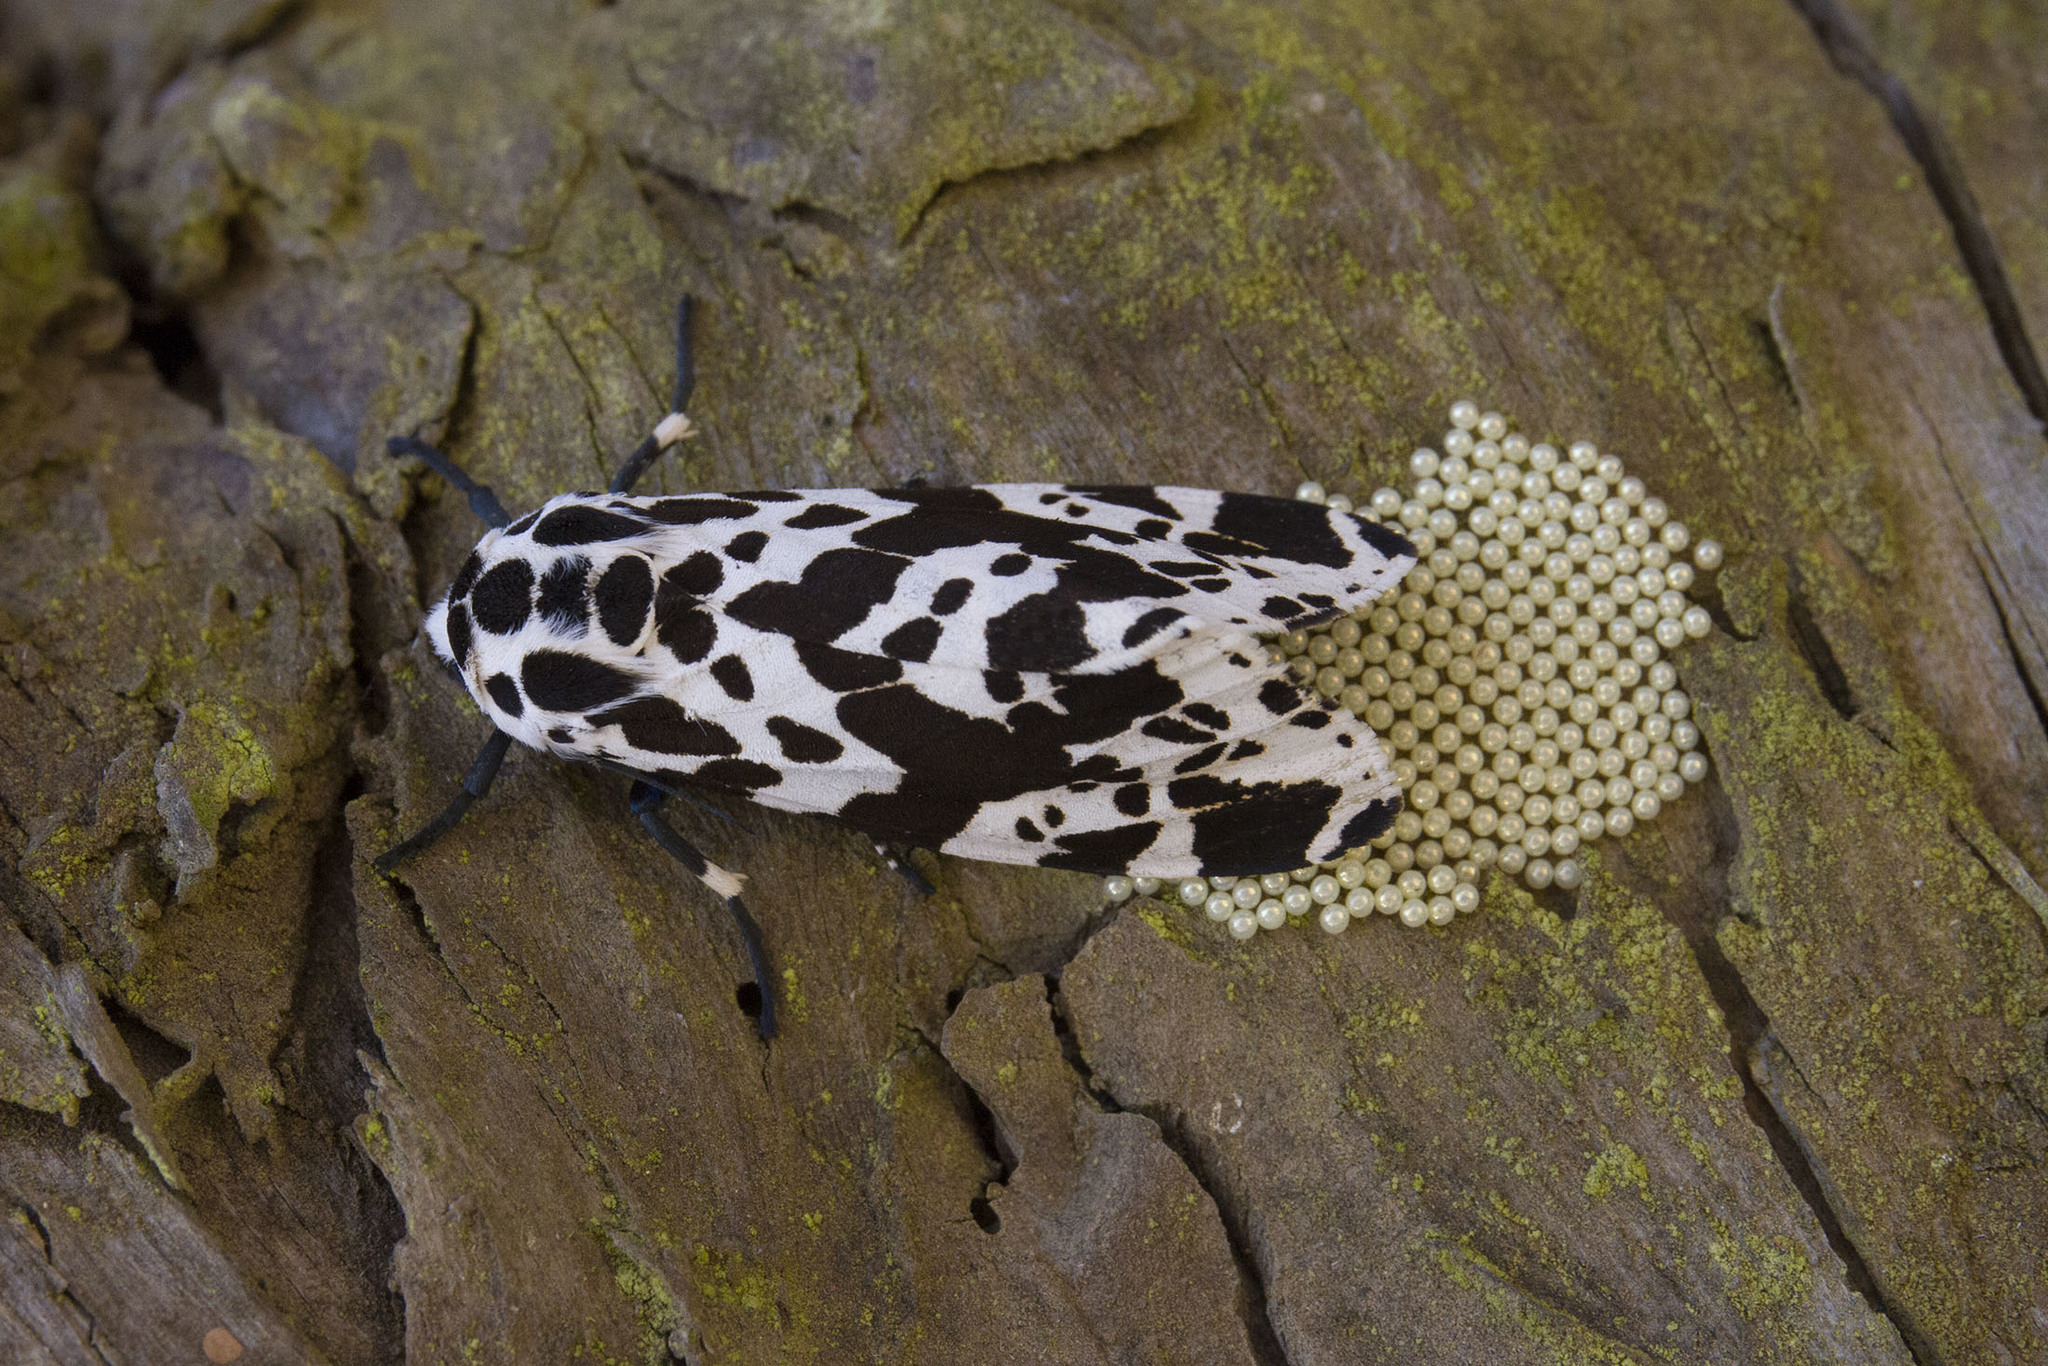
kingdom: Animalia
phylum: Arthropoda
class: Insecta
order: Lepidoptera
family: Erebidae
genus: Hypercompe
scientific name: Hypercompe extrema
